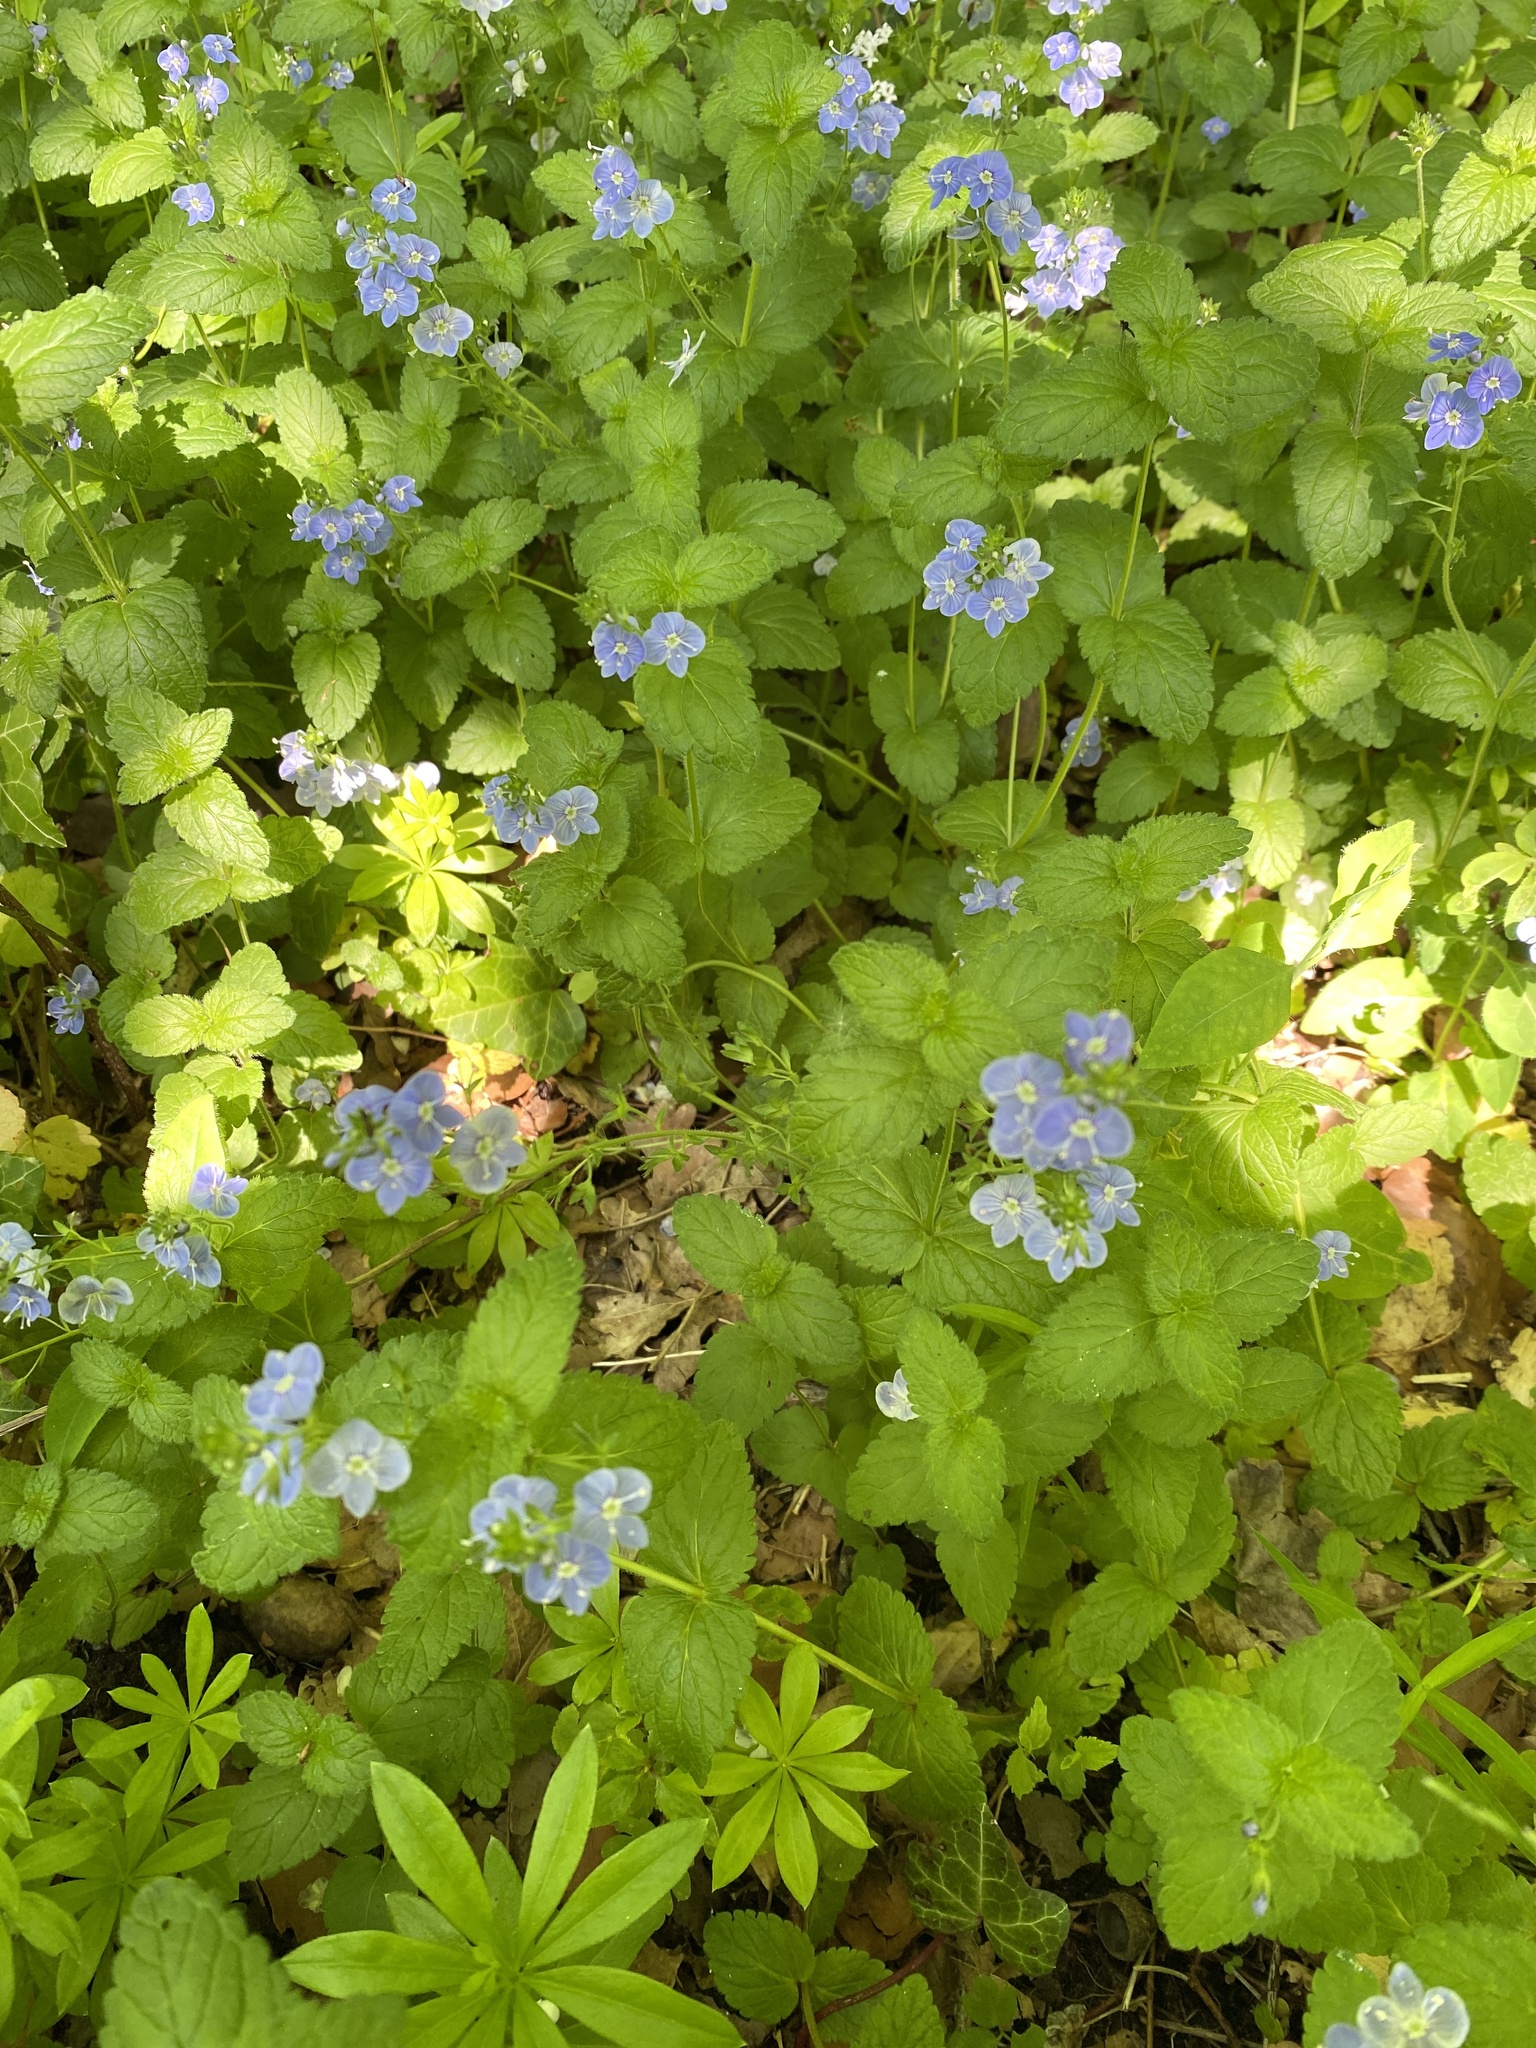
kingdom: Plantae
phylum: Tracheophyta
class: Magnoliopsida
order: Lamiales
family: Plantaginaceae
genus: Veronica
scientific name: Veronica chamaedrys
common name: Germander speedwell
